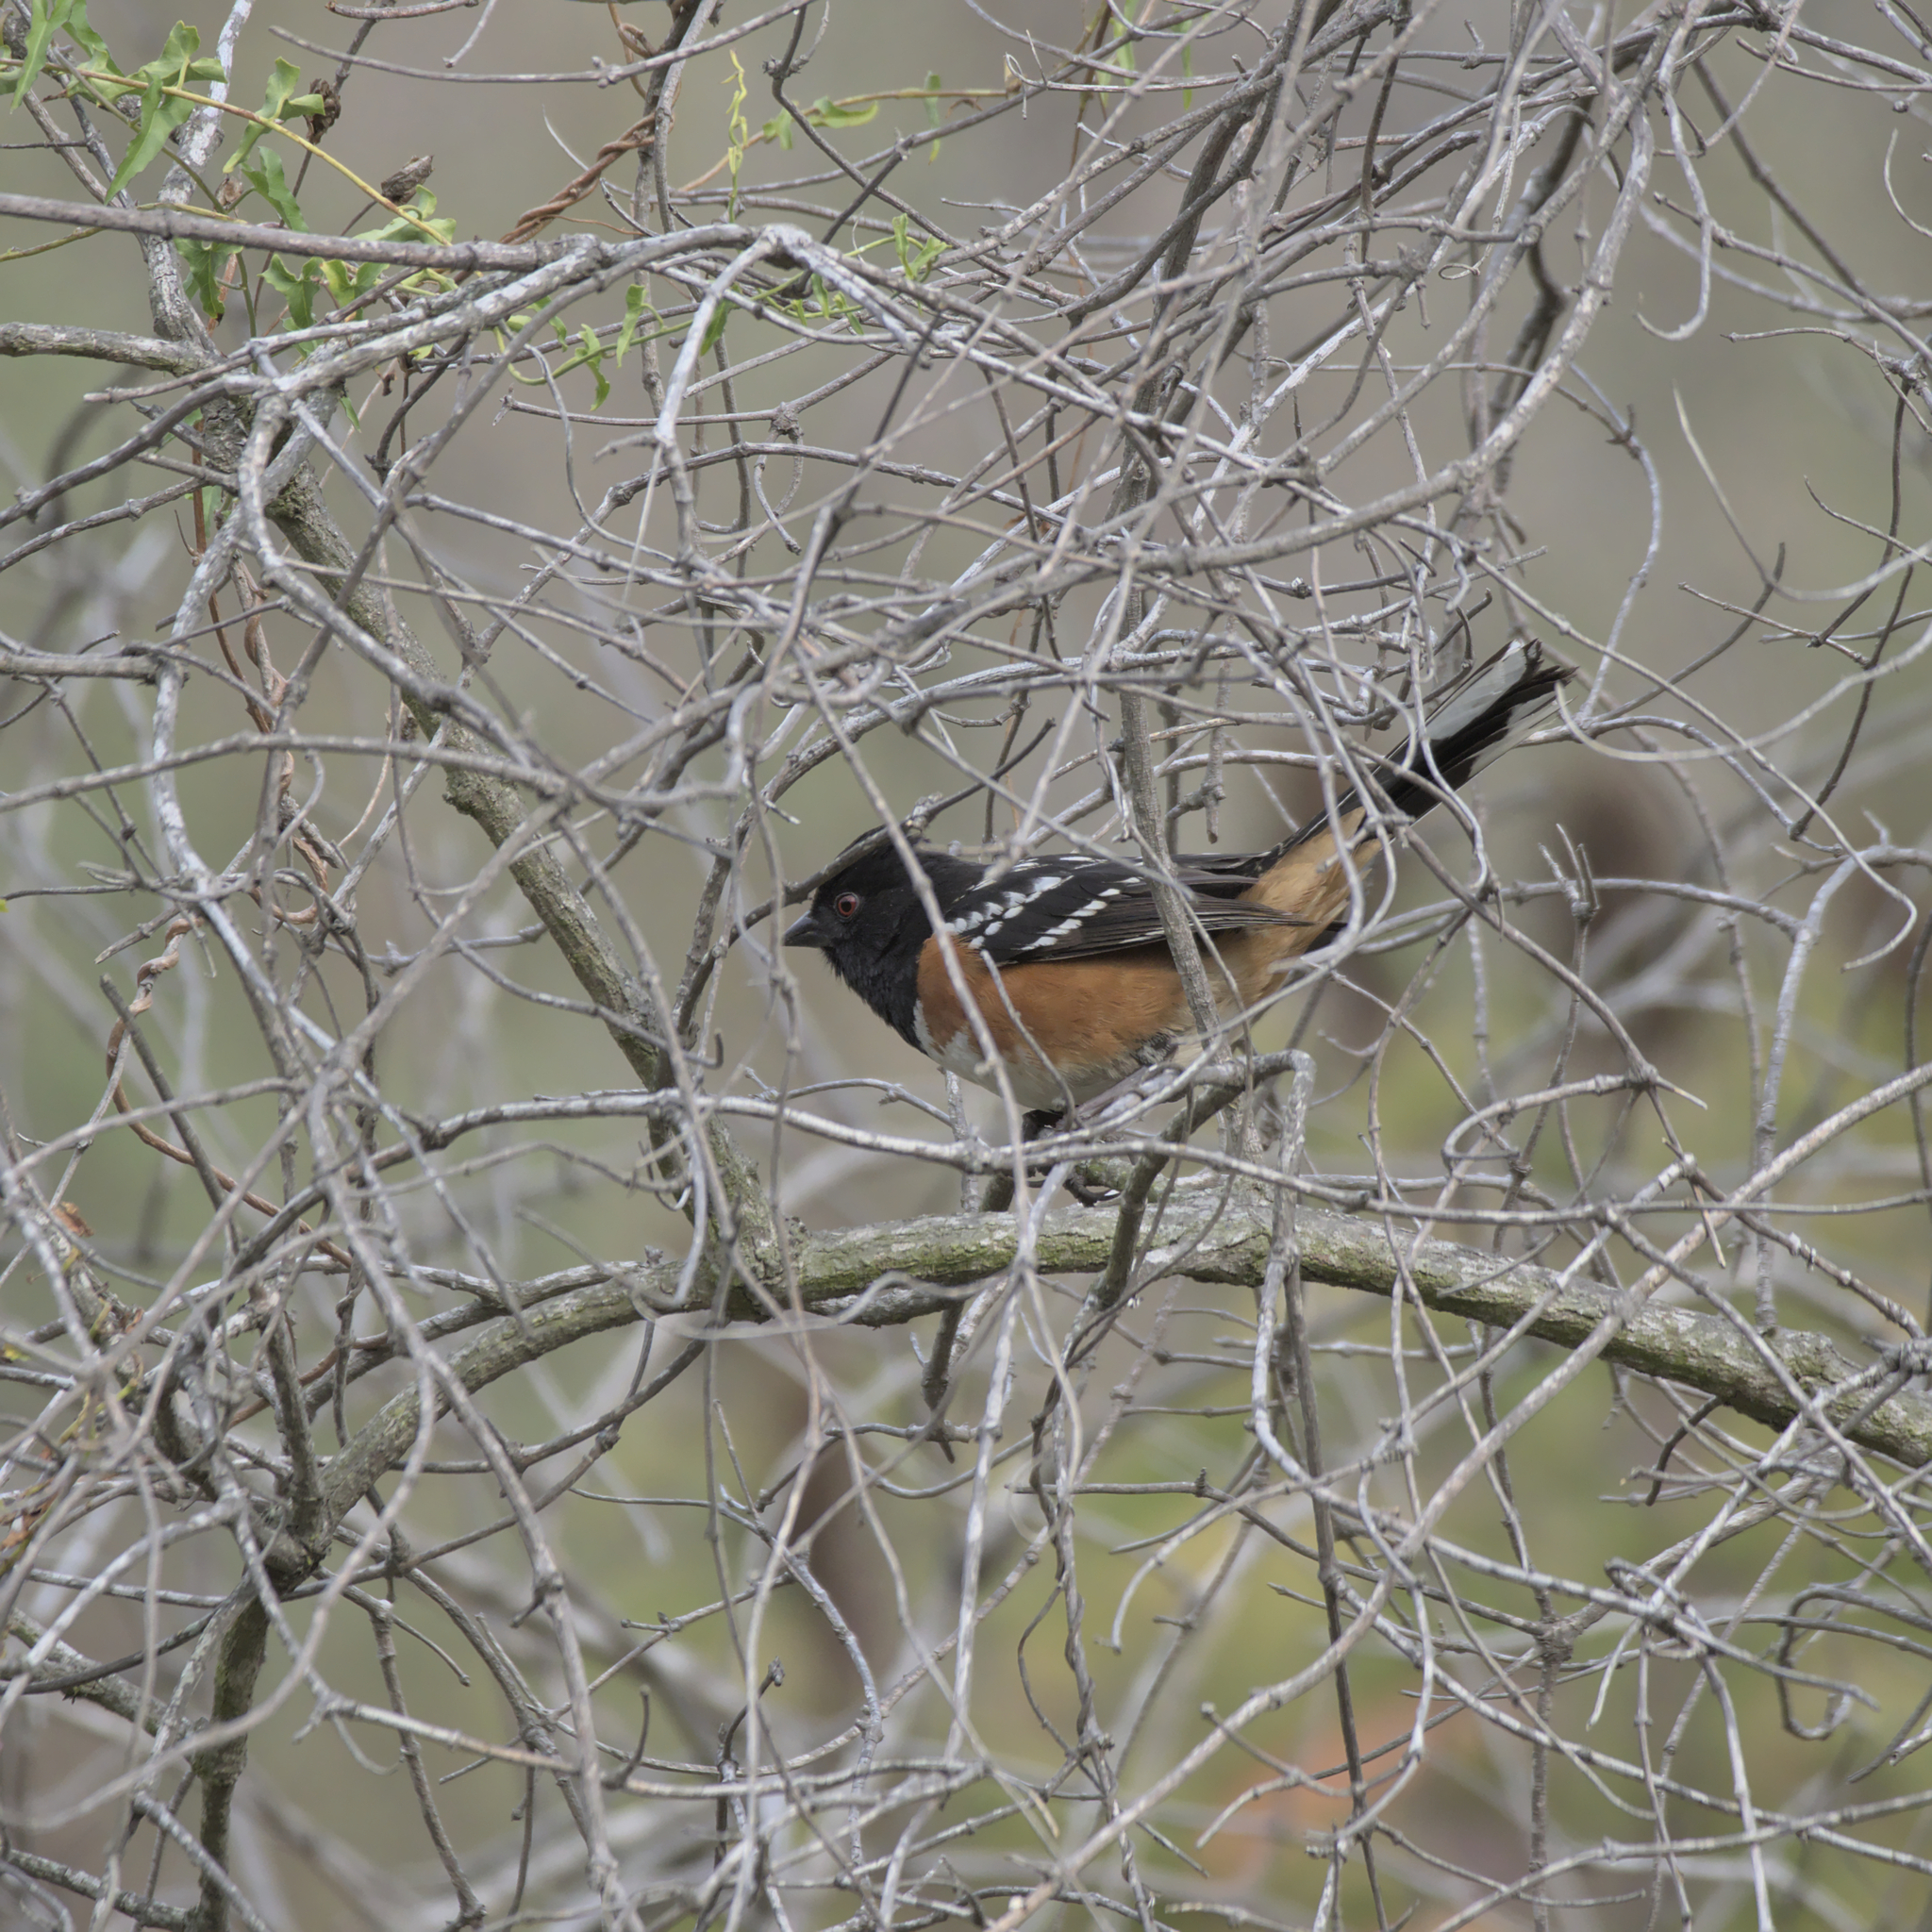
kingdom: Animalia
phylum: Chordata
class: Aves
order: Passeriformes
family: Passerellidae
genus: Pipilo
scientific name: Pipilo maculatus
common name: Spotted towhee
